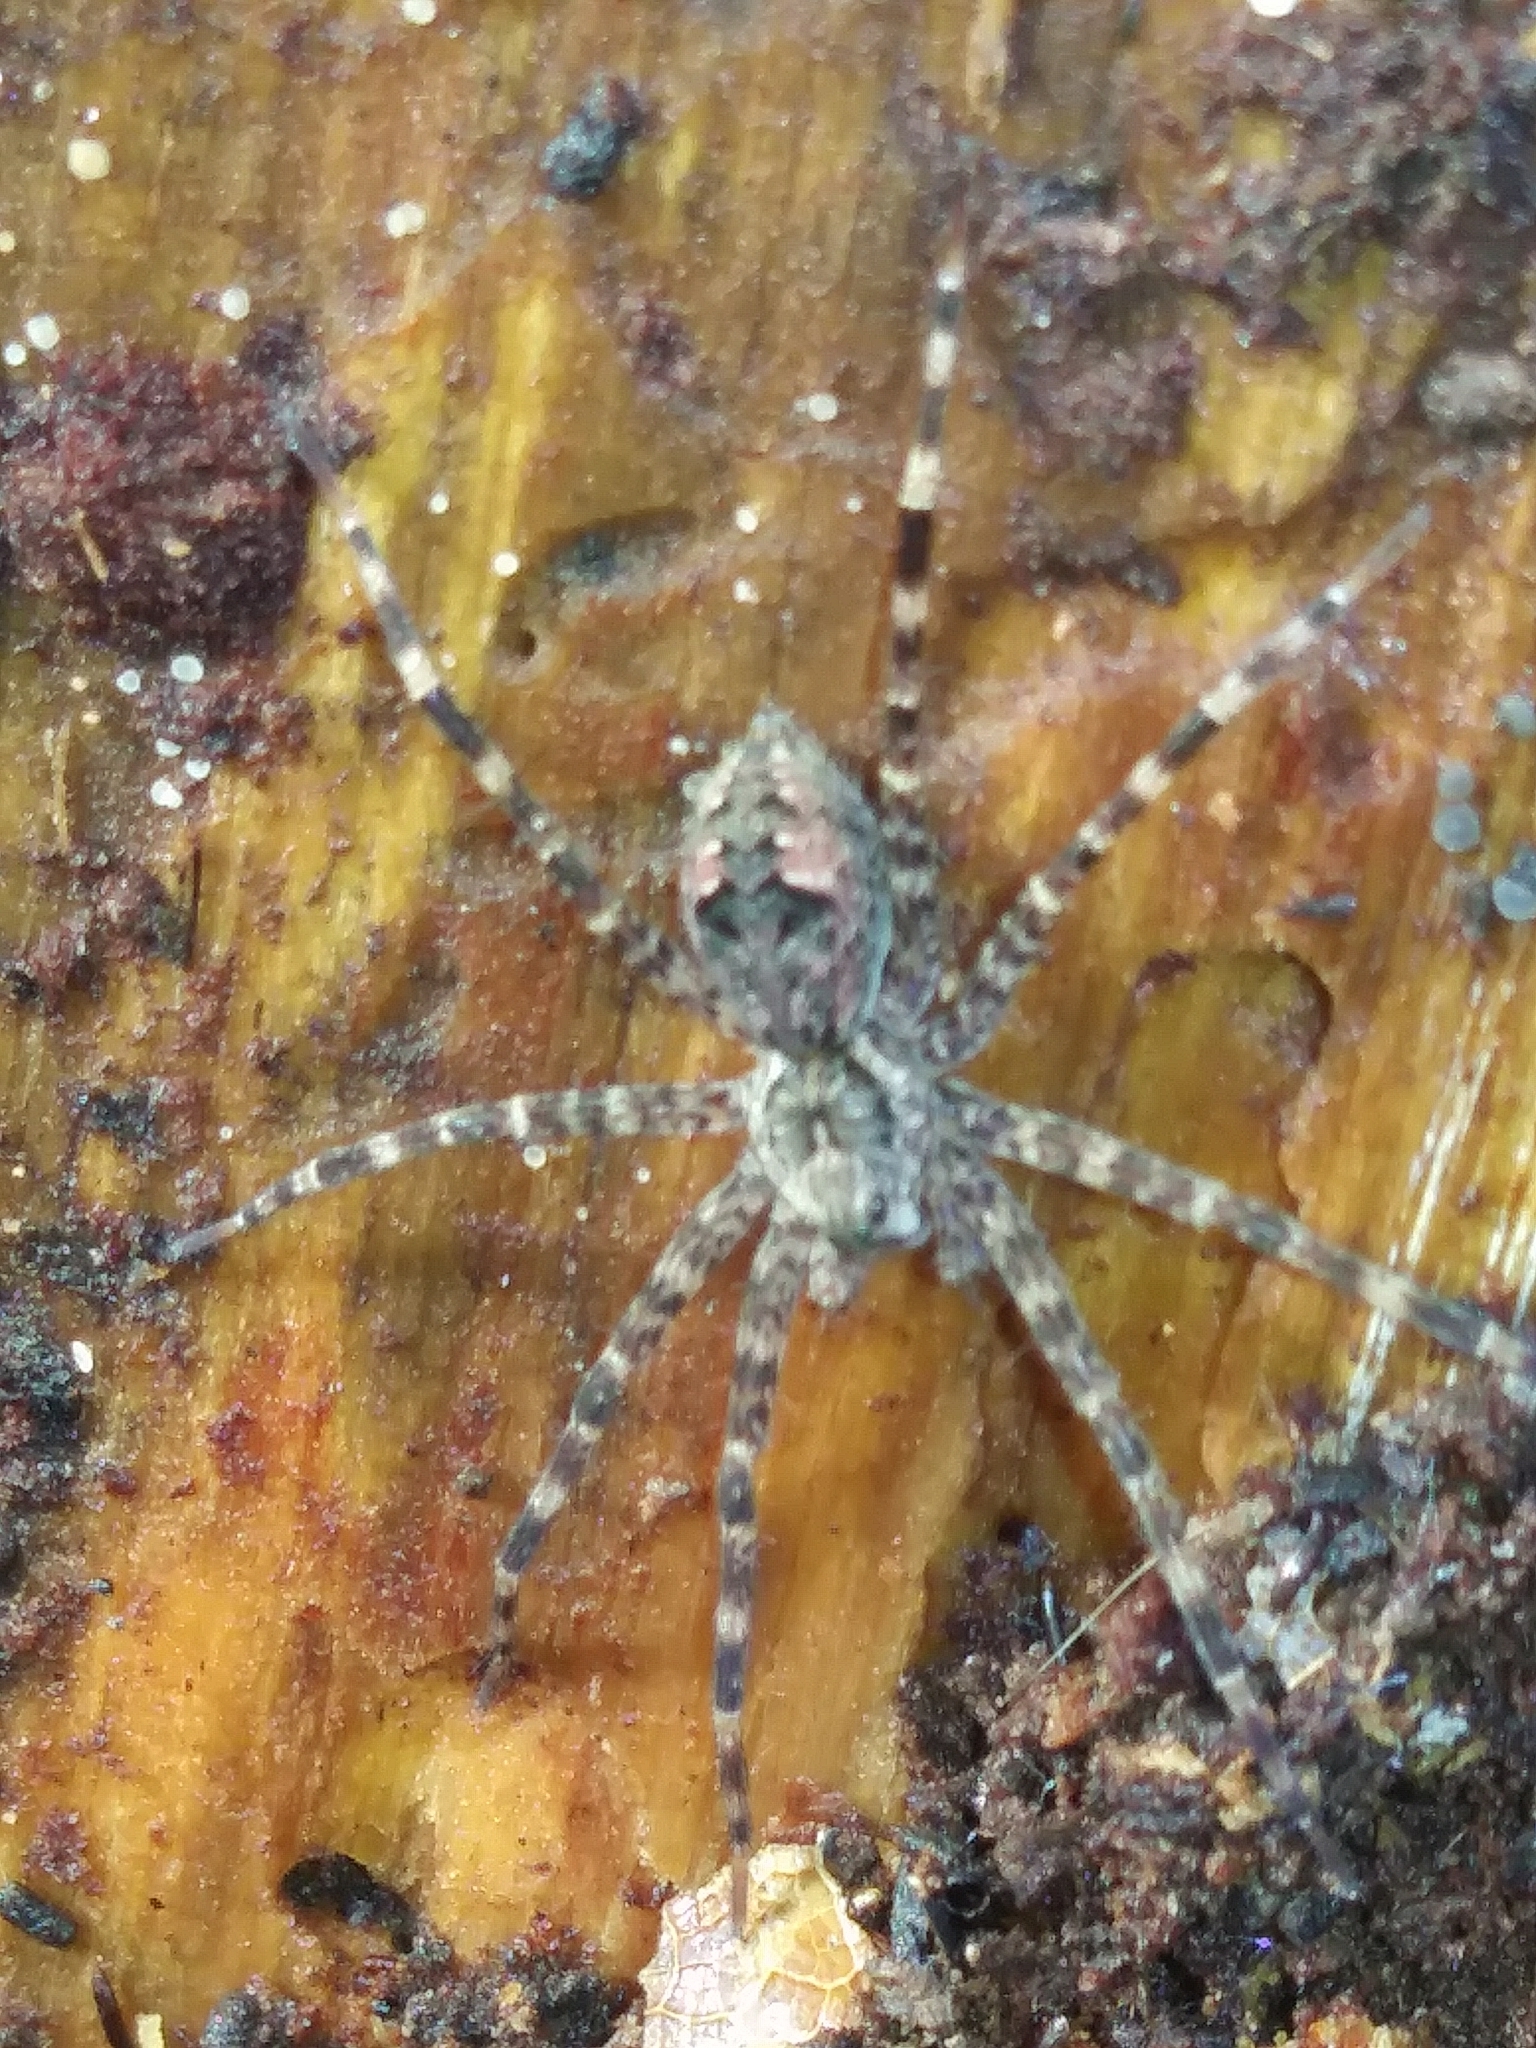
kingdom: Animalia
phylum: Arthropoda
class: Arachnida
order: Araneae
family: Pisauridae
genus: Dolomedes
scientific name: Dolomedes tenebrosus
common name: Dark fishing spider
